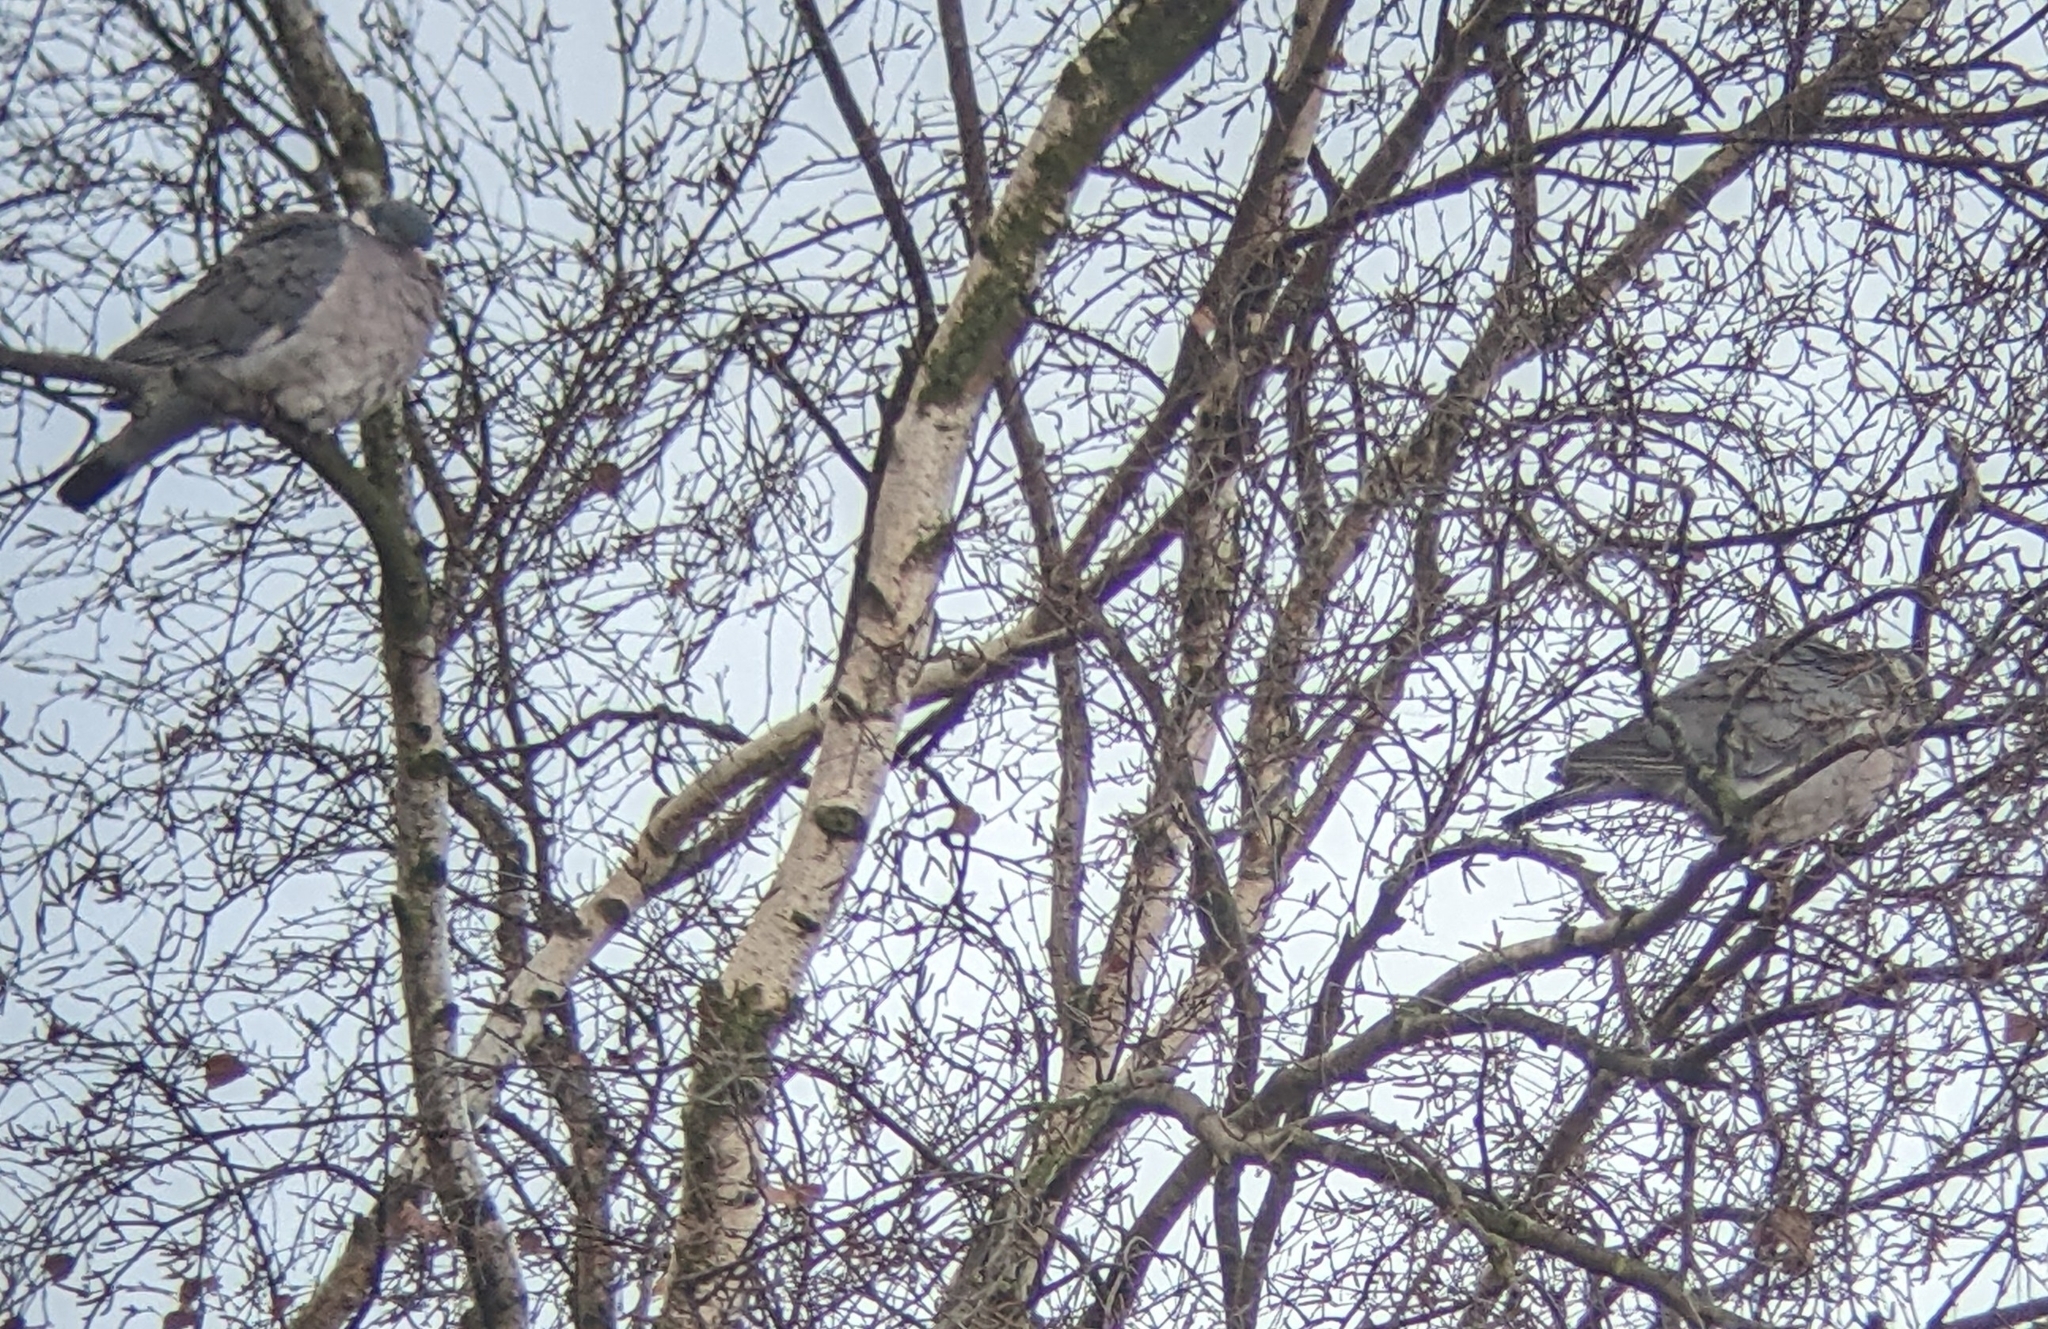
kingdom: Animalia
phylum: Chordata
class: Aves
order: Columbiformes
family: Columbidae
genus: Columba
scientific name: Columba palumbus
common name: Common wood pigeon
